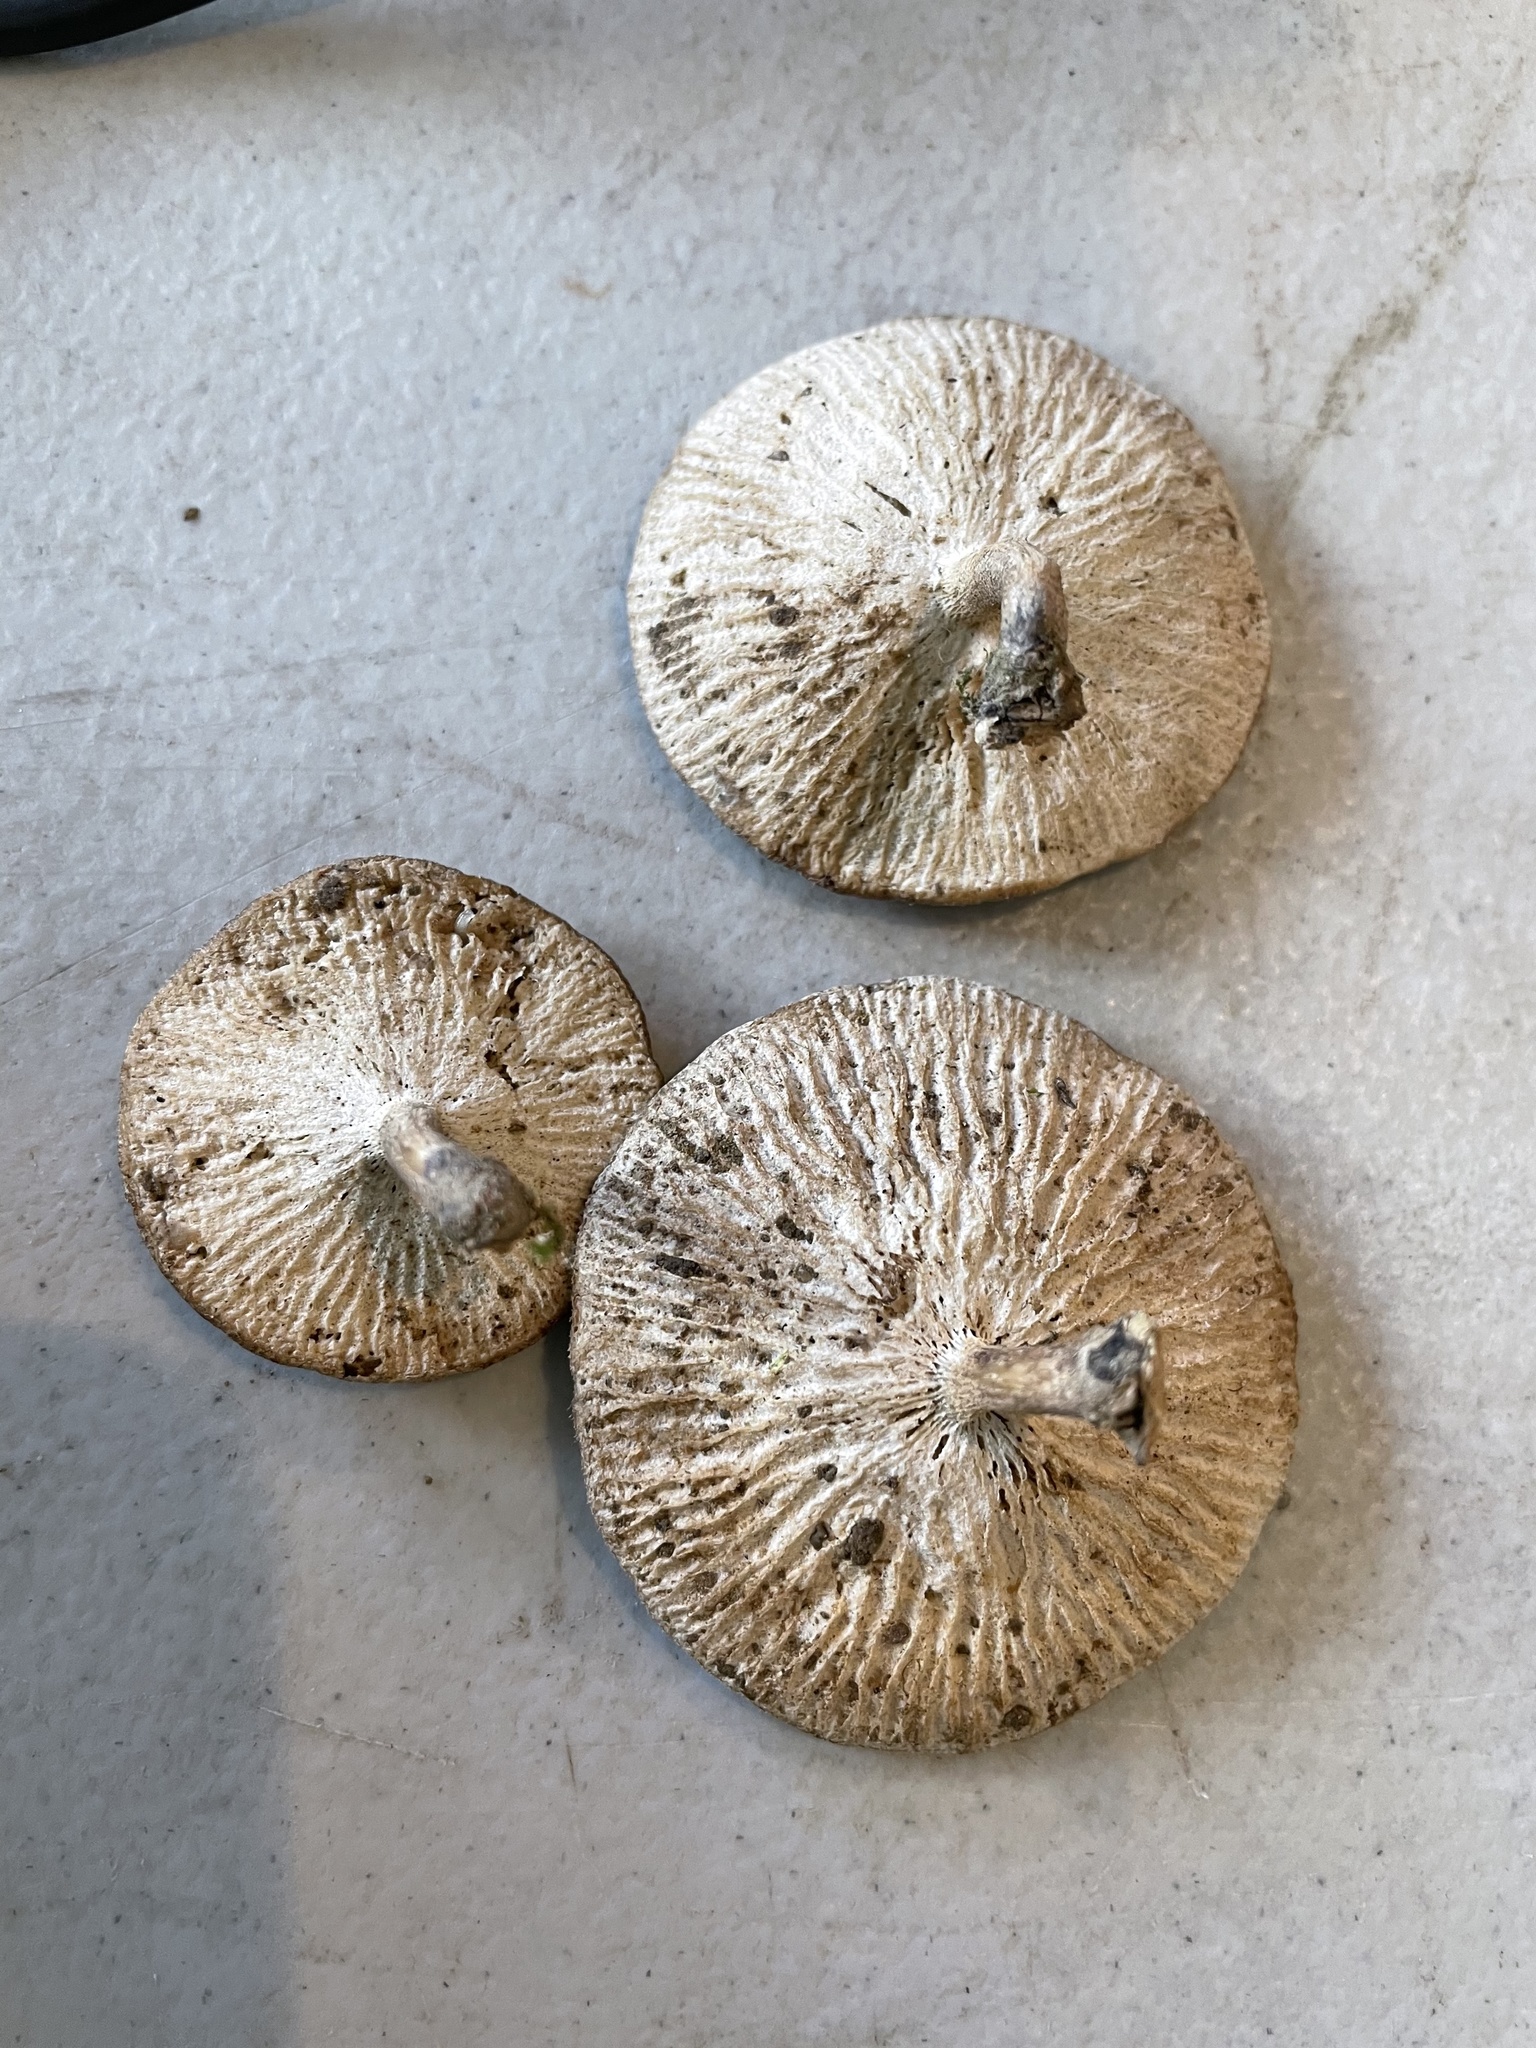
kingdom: Fungi
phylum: Basidiomycota
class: Agaricomycetes
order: Polyporales
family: Polyporaceae
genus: Lentinus
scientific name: Lentinus tigrinus
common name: Tiger sawgill
